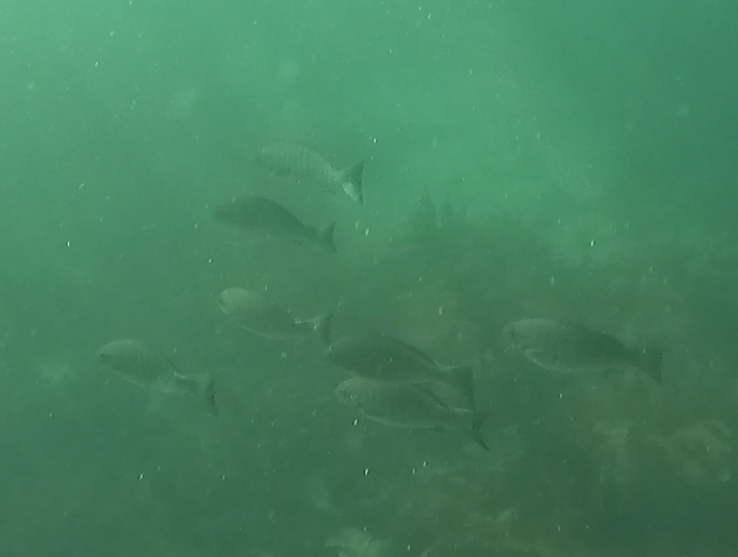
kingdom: Animalia
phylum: Chordata
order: Perciformes
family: Kyphosidae
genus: Girella
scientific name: Girella tricuspidata
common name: Parore
